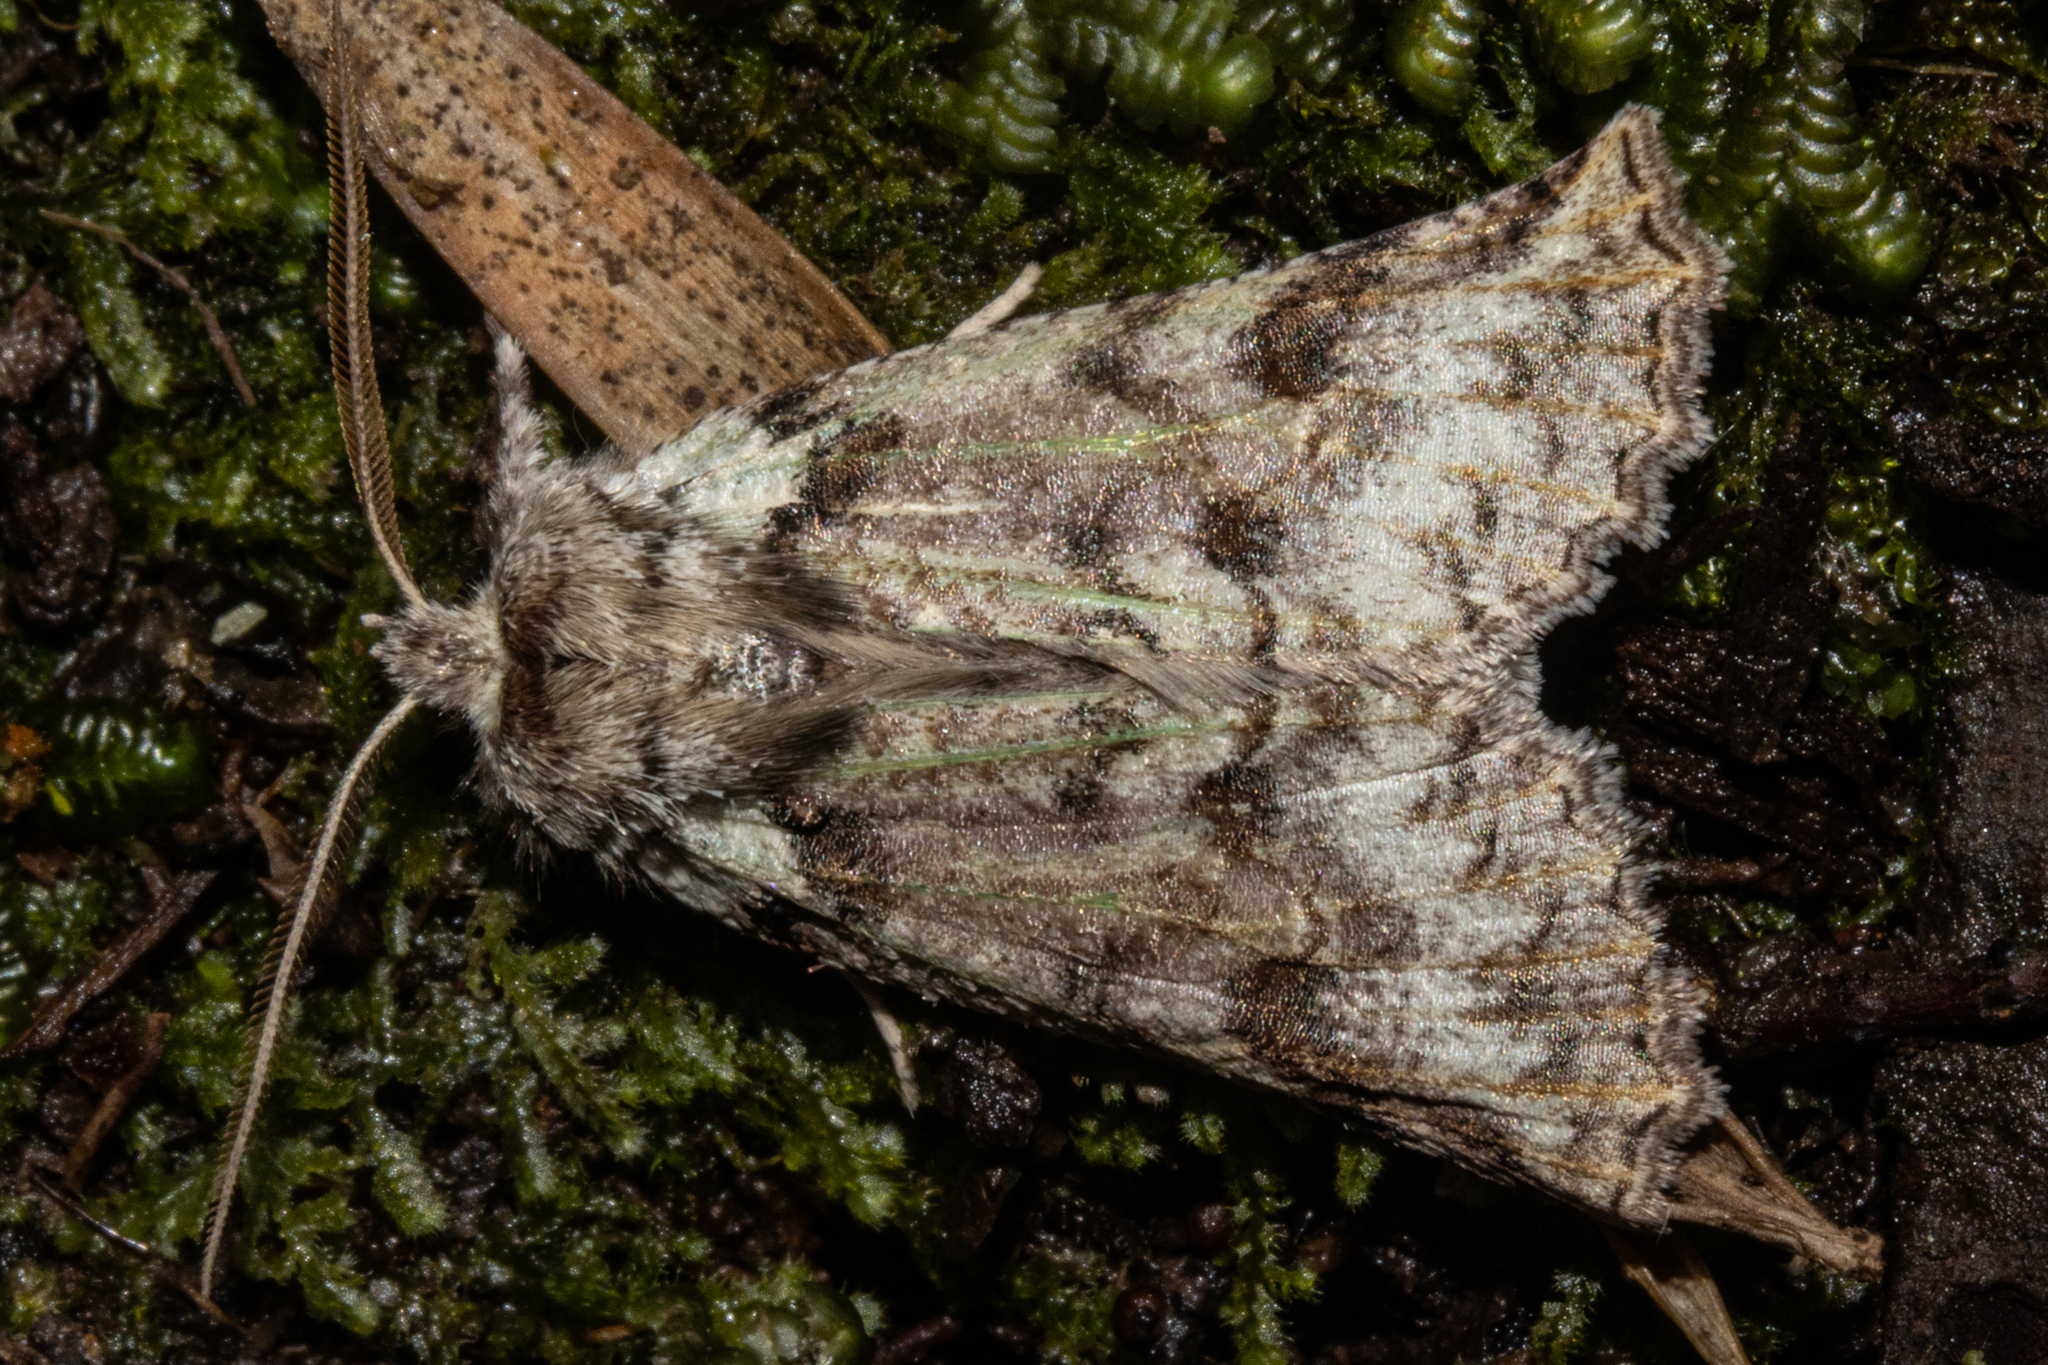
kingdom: Animalia
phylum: Arthropoda
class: Insecta
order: Lepidoptera
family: Geometridae
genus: Declana
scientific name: Declana floccosa
